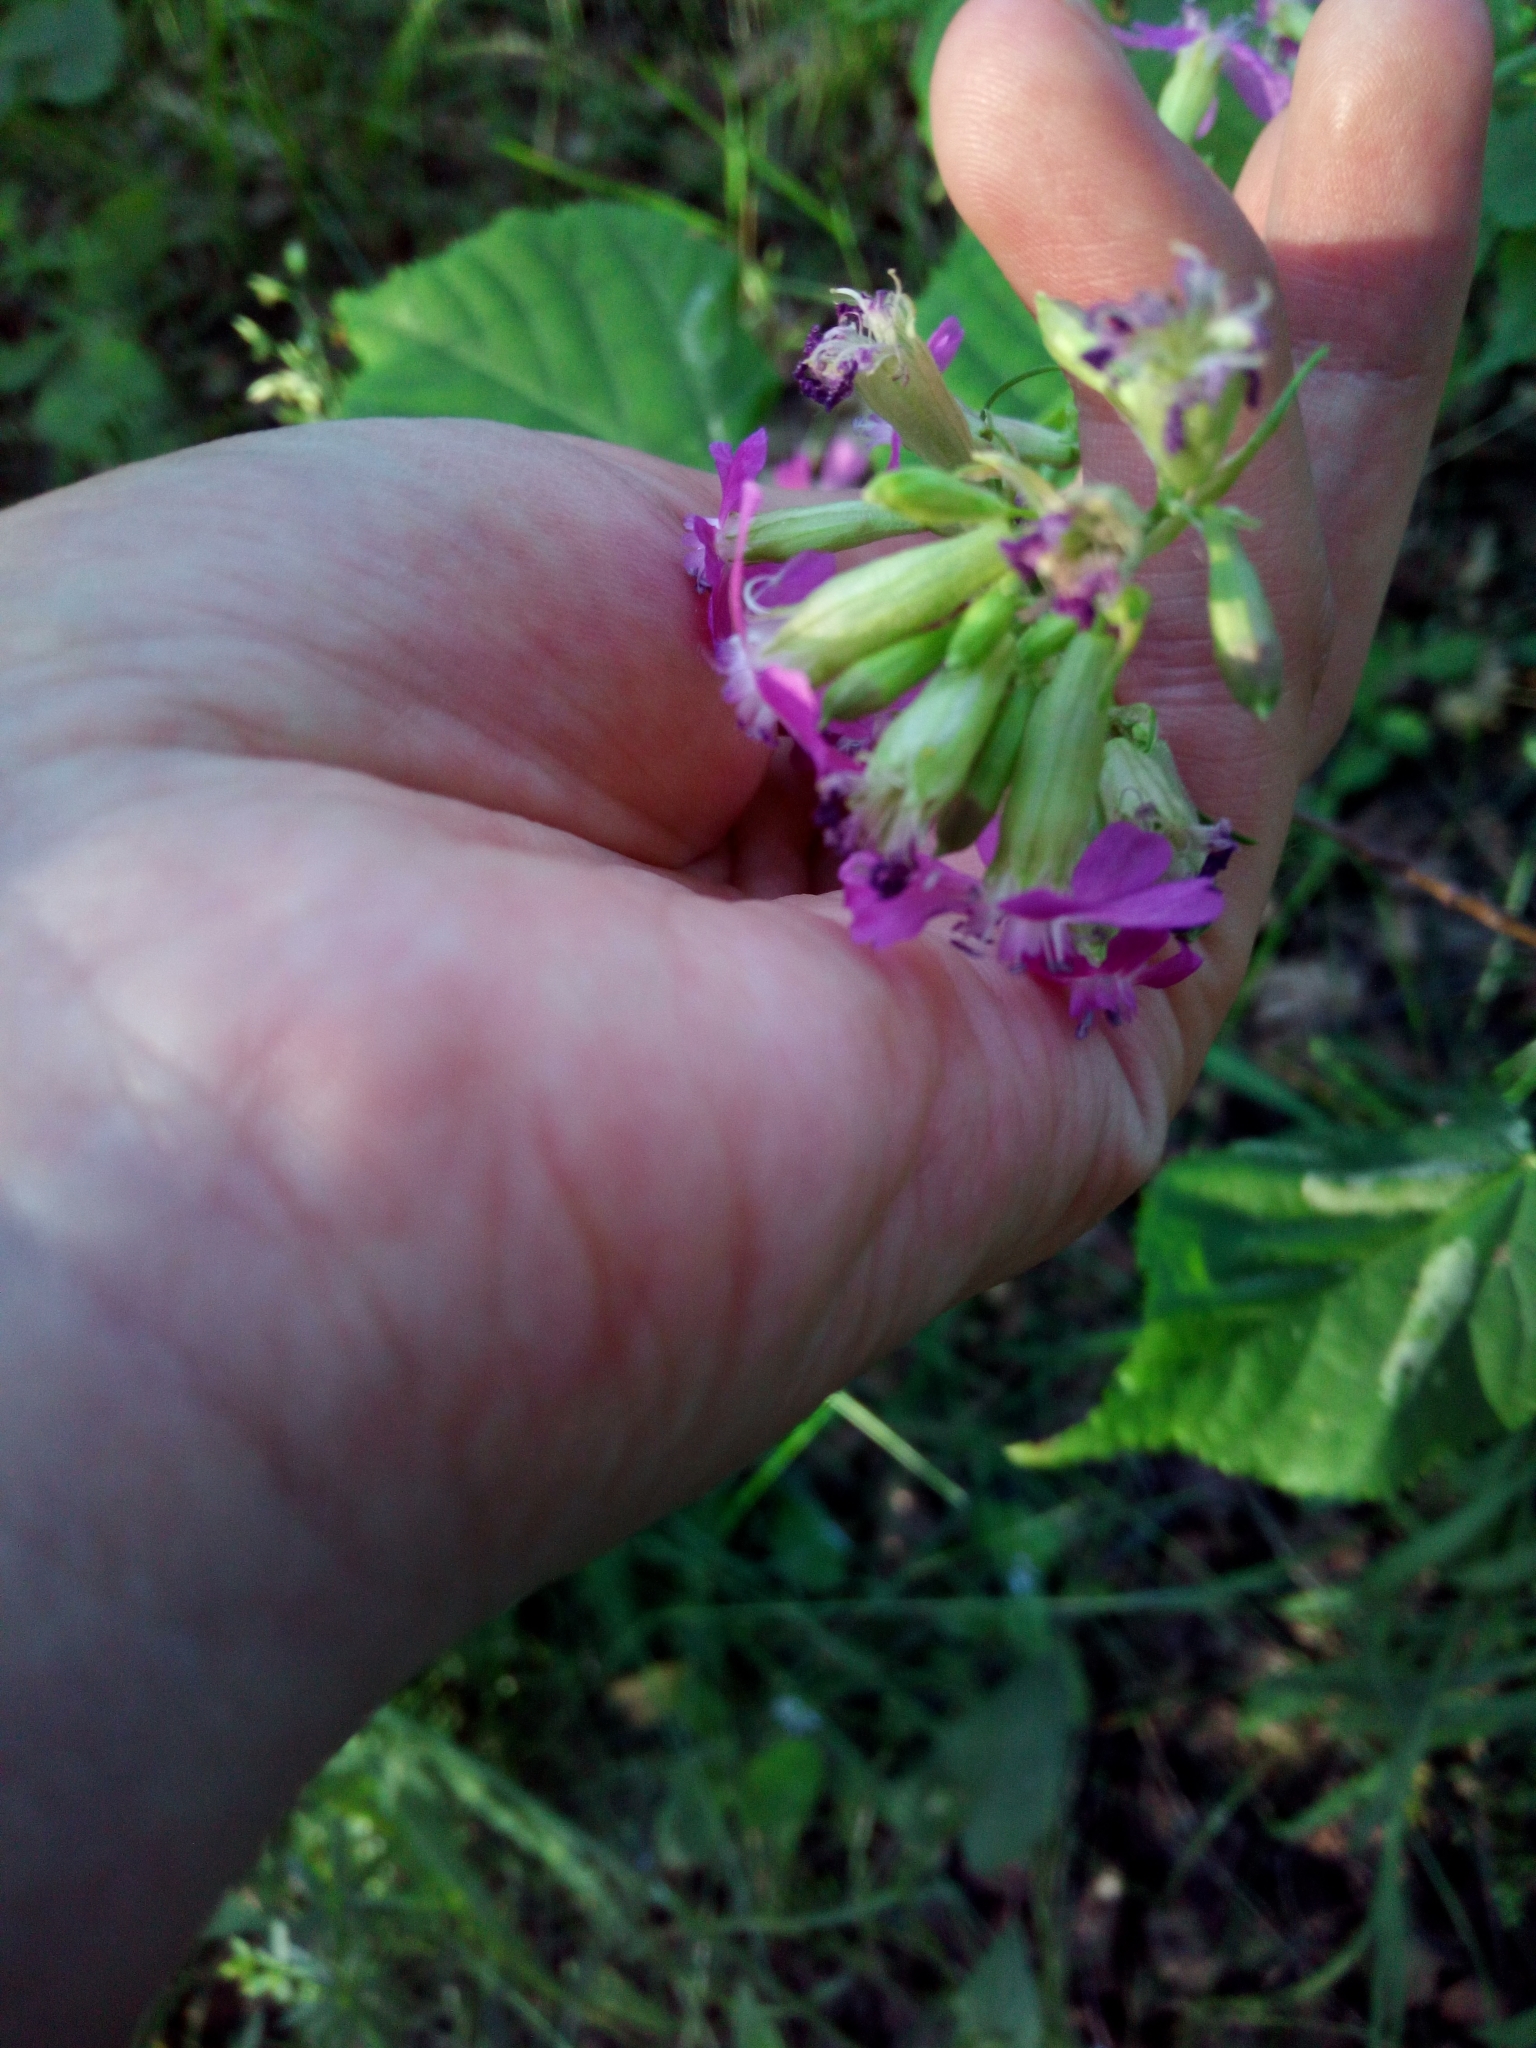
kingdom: Plantae
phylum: Tracheophyta
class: Magnoliopsida
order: Caryophyllales
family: Caryophyllaceae
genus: Viscaria
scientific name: Viscaria vulgaris
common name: Clammy campion
